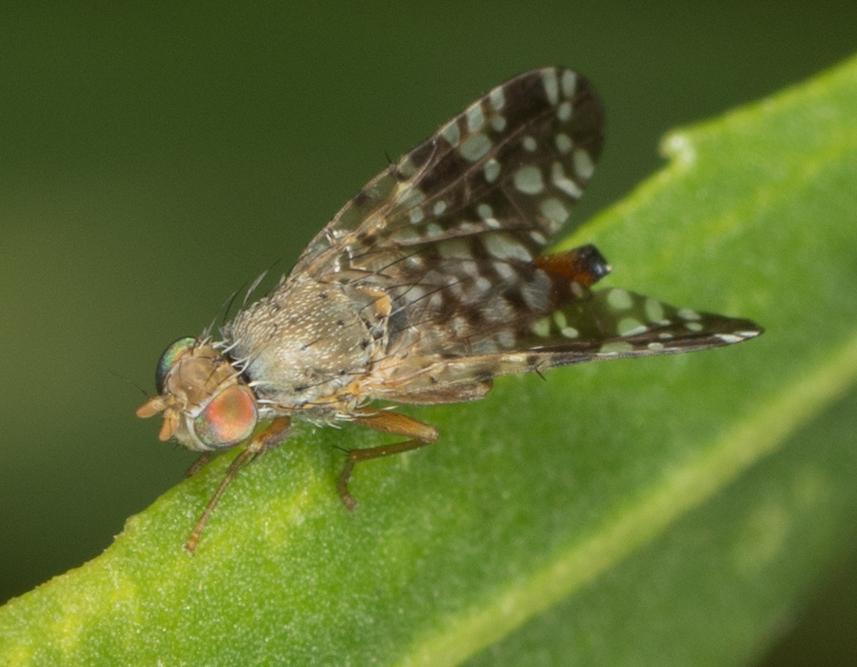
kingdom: Animalia
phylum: Arthropoda
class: Insecta
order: Diptera
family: Tephritidae
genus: Neotephritis
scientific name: Neotephritis finalis
